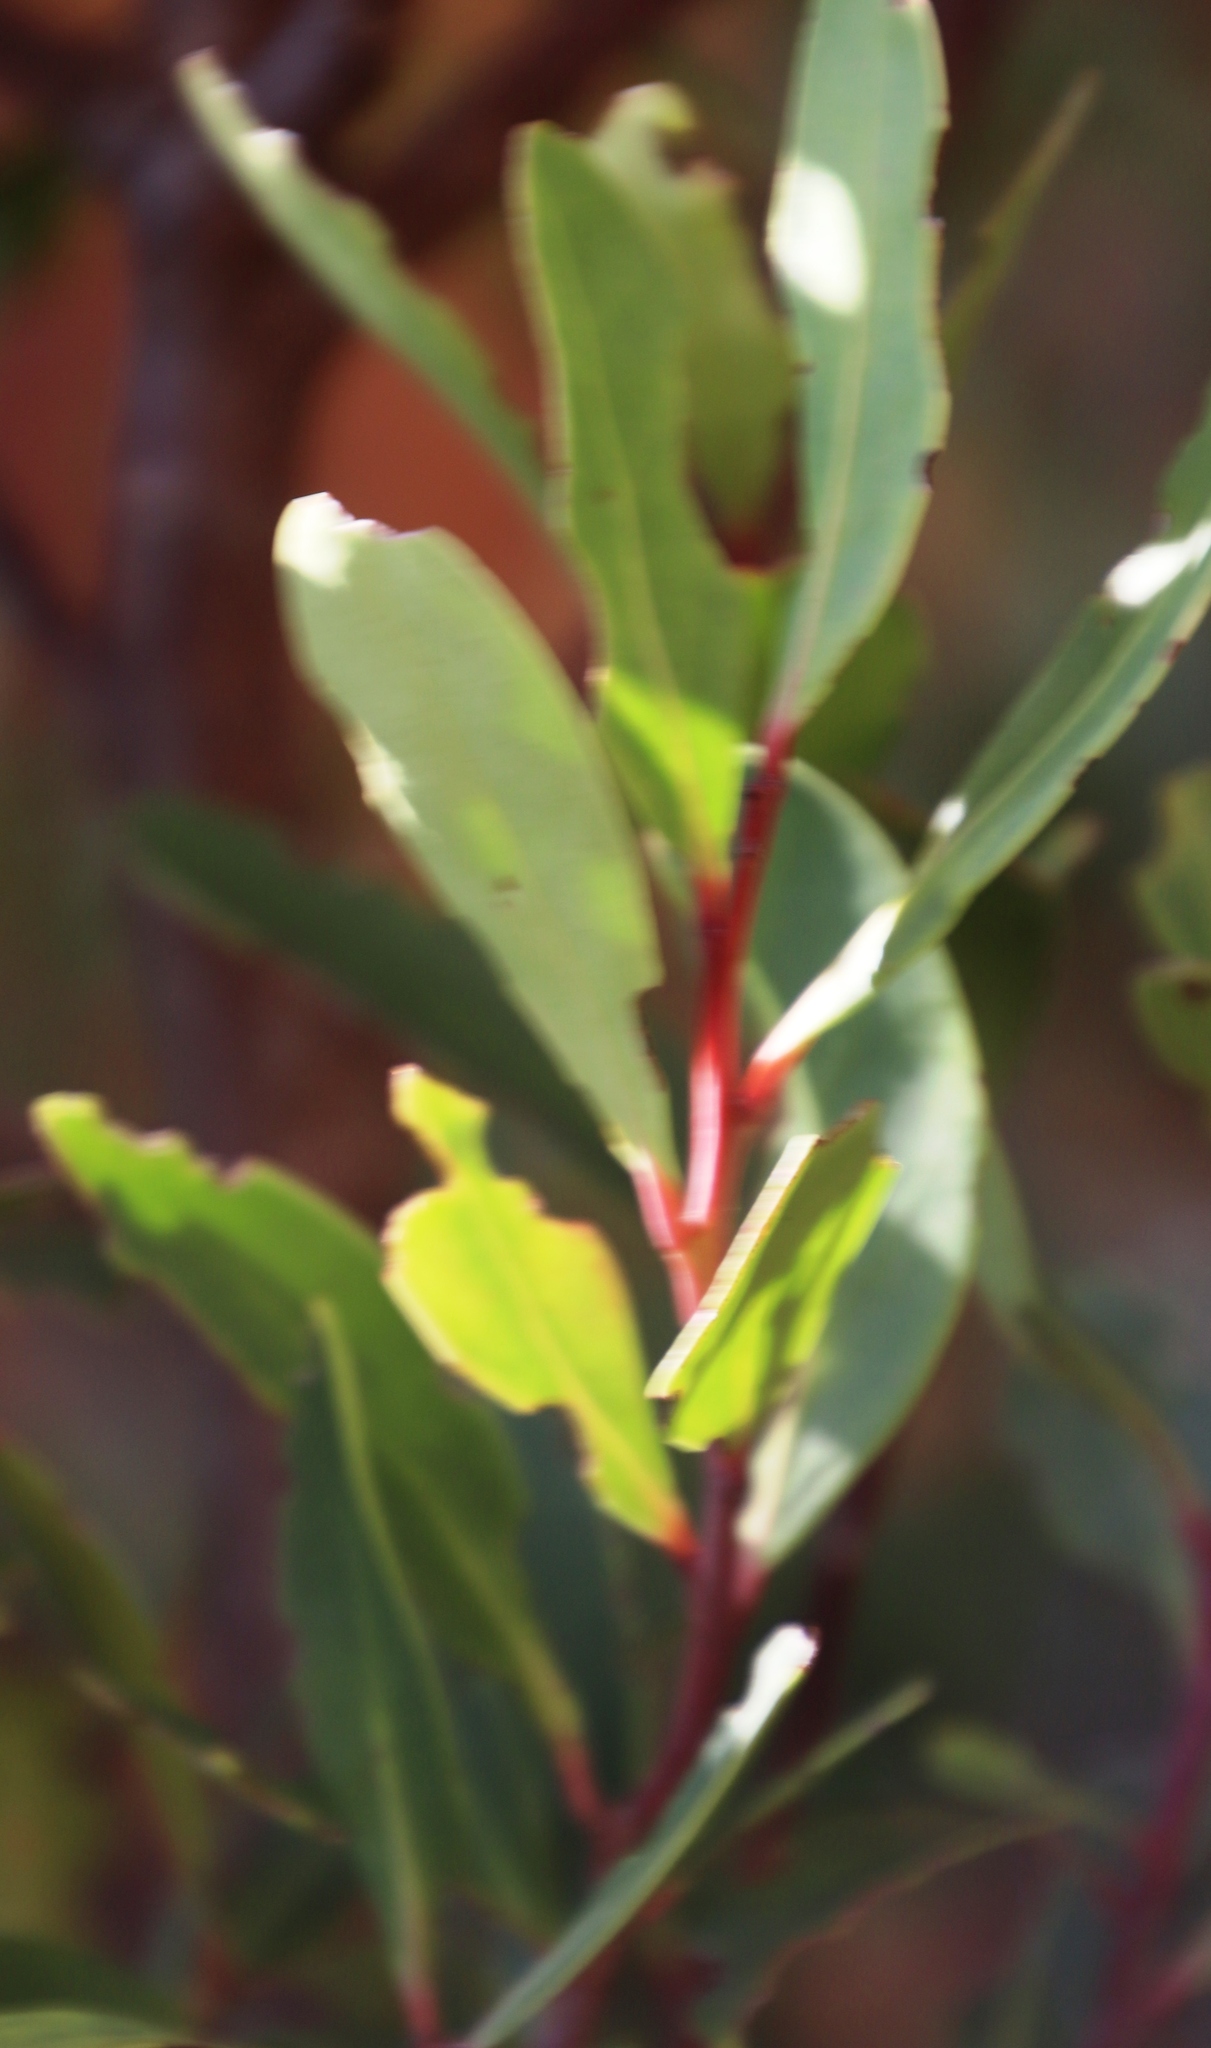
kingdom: Plantae
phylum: Tracheophyta
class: Magnoliopsida
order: Celastrales
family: Celastraceae
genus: Gymnosporia
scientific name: Gymnosporia laurina
